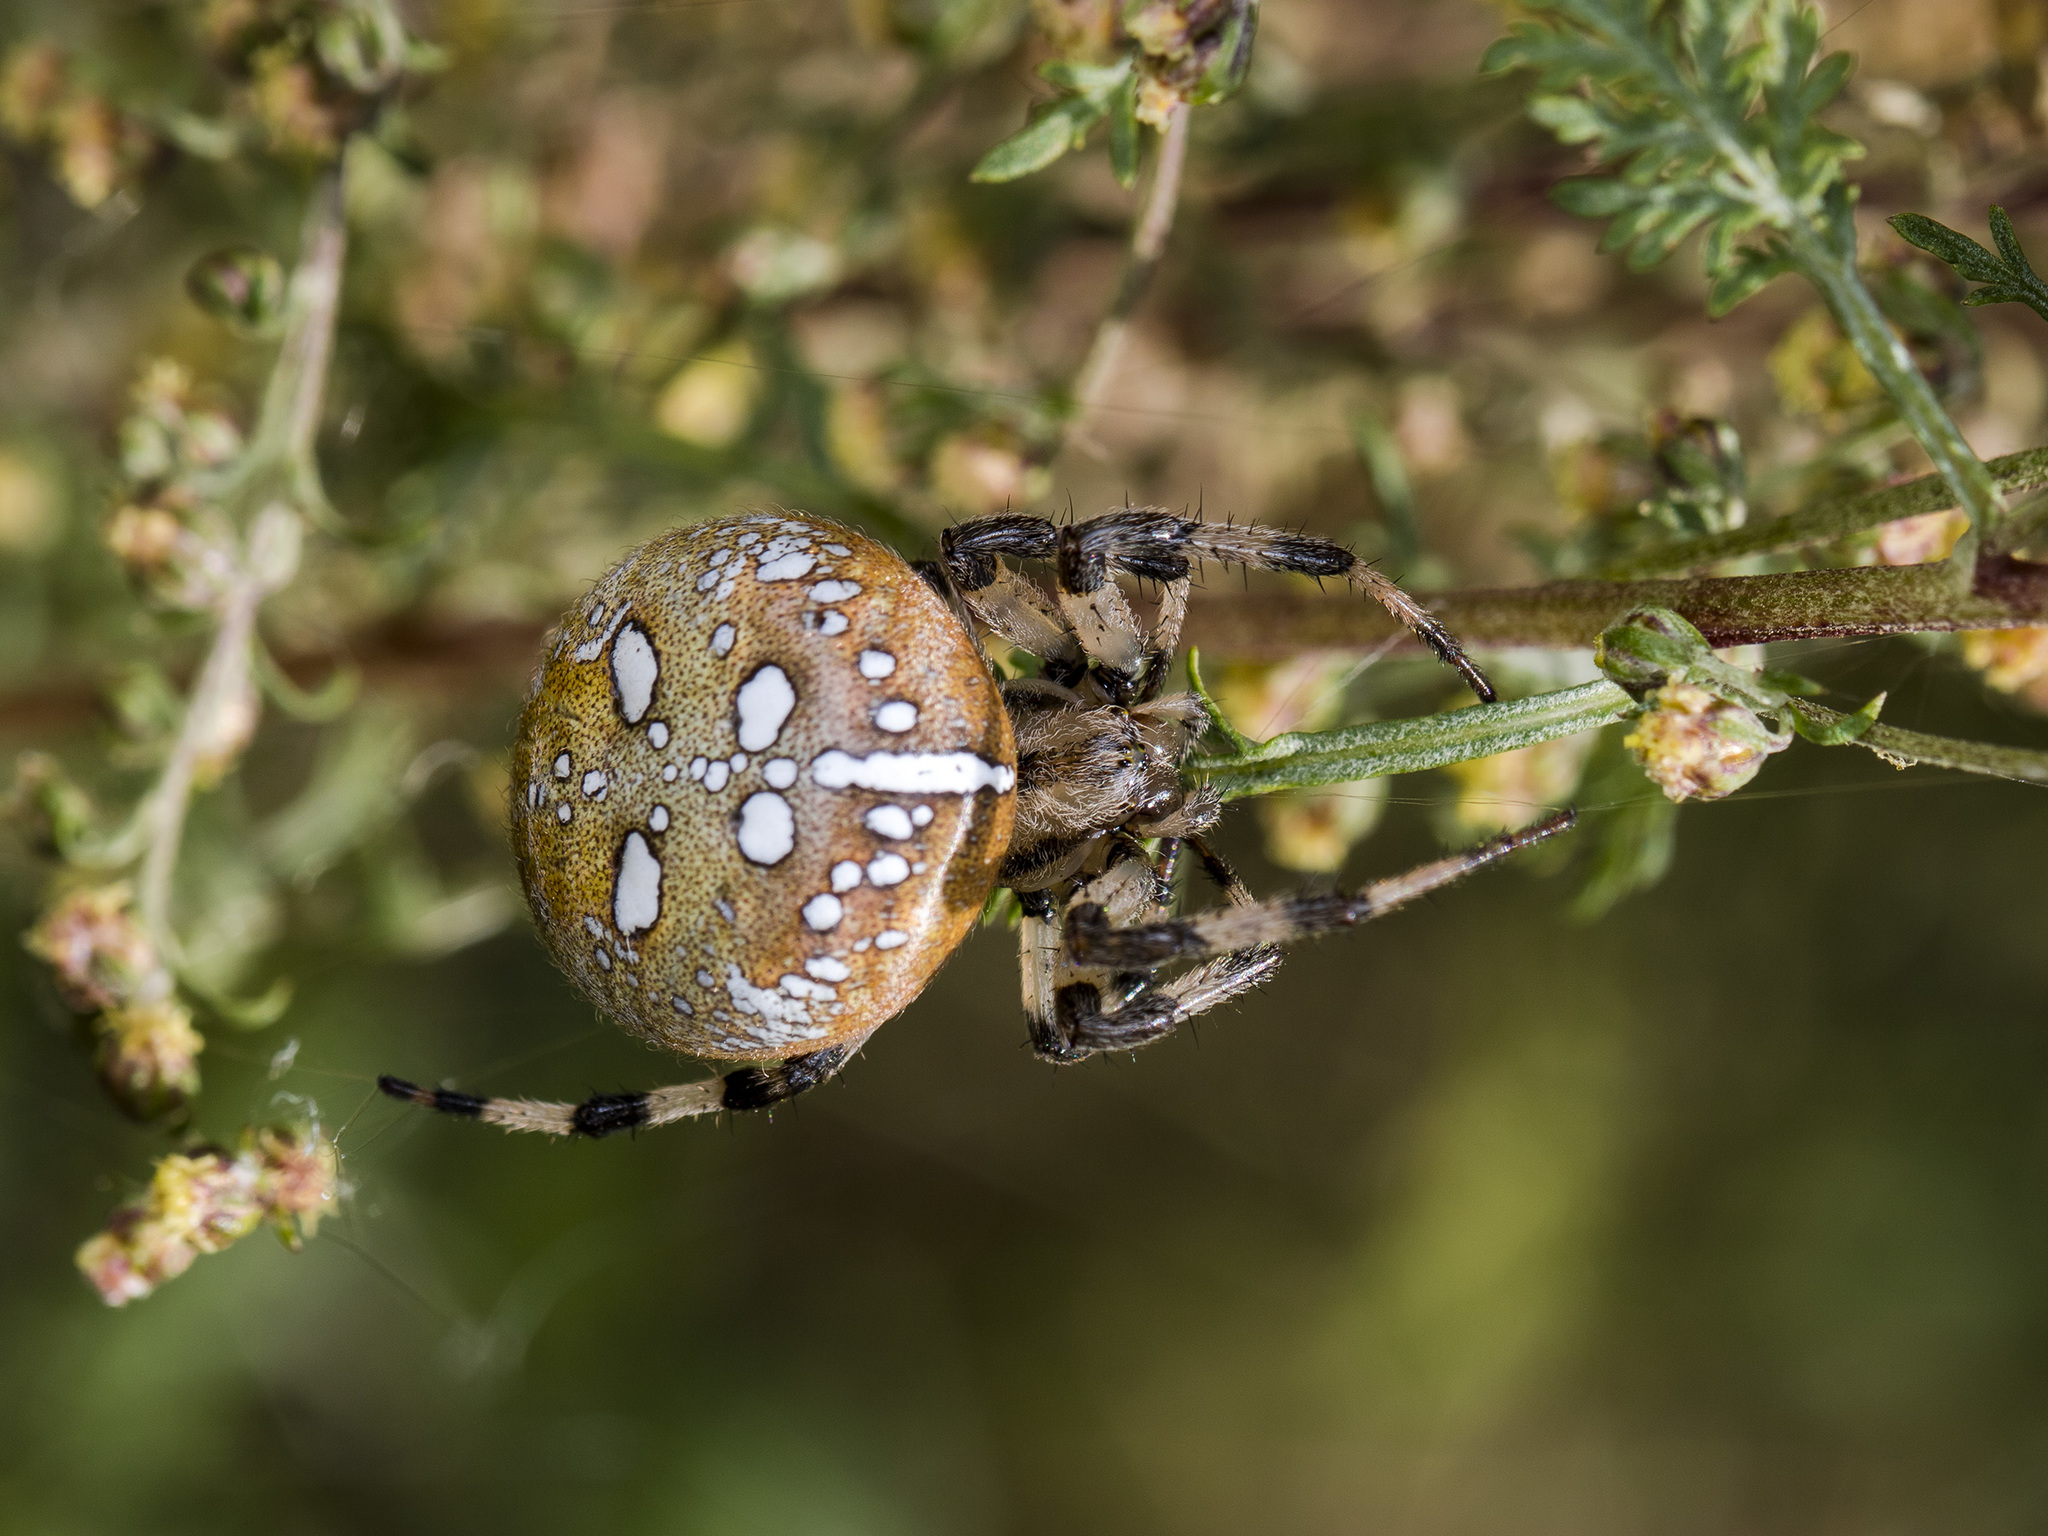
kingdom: Animalia
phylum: Arthropoda
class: Arachnida
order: Araneae
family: Araneidae
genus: Araneus
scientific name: Araneus quadratus
